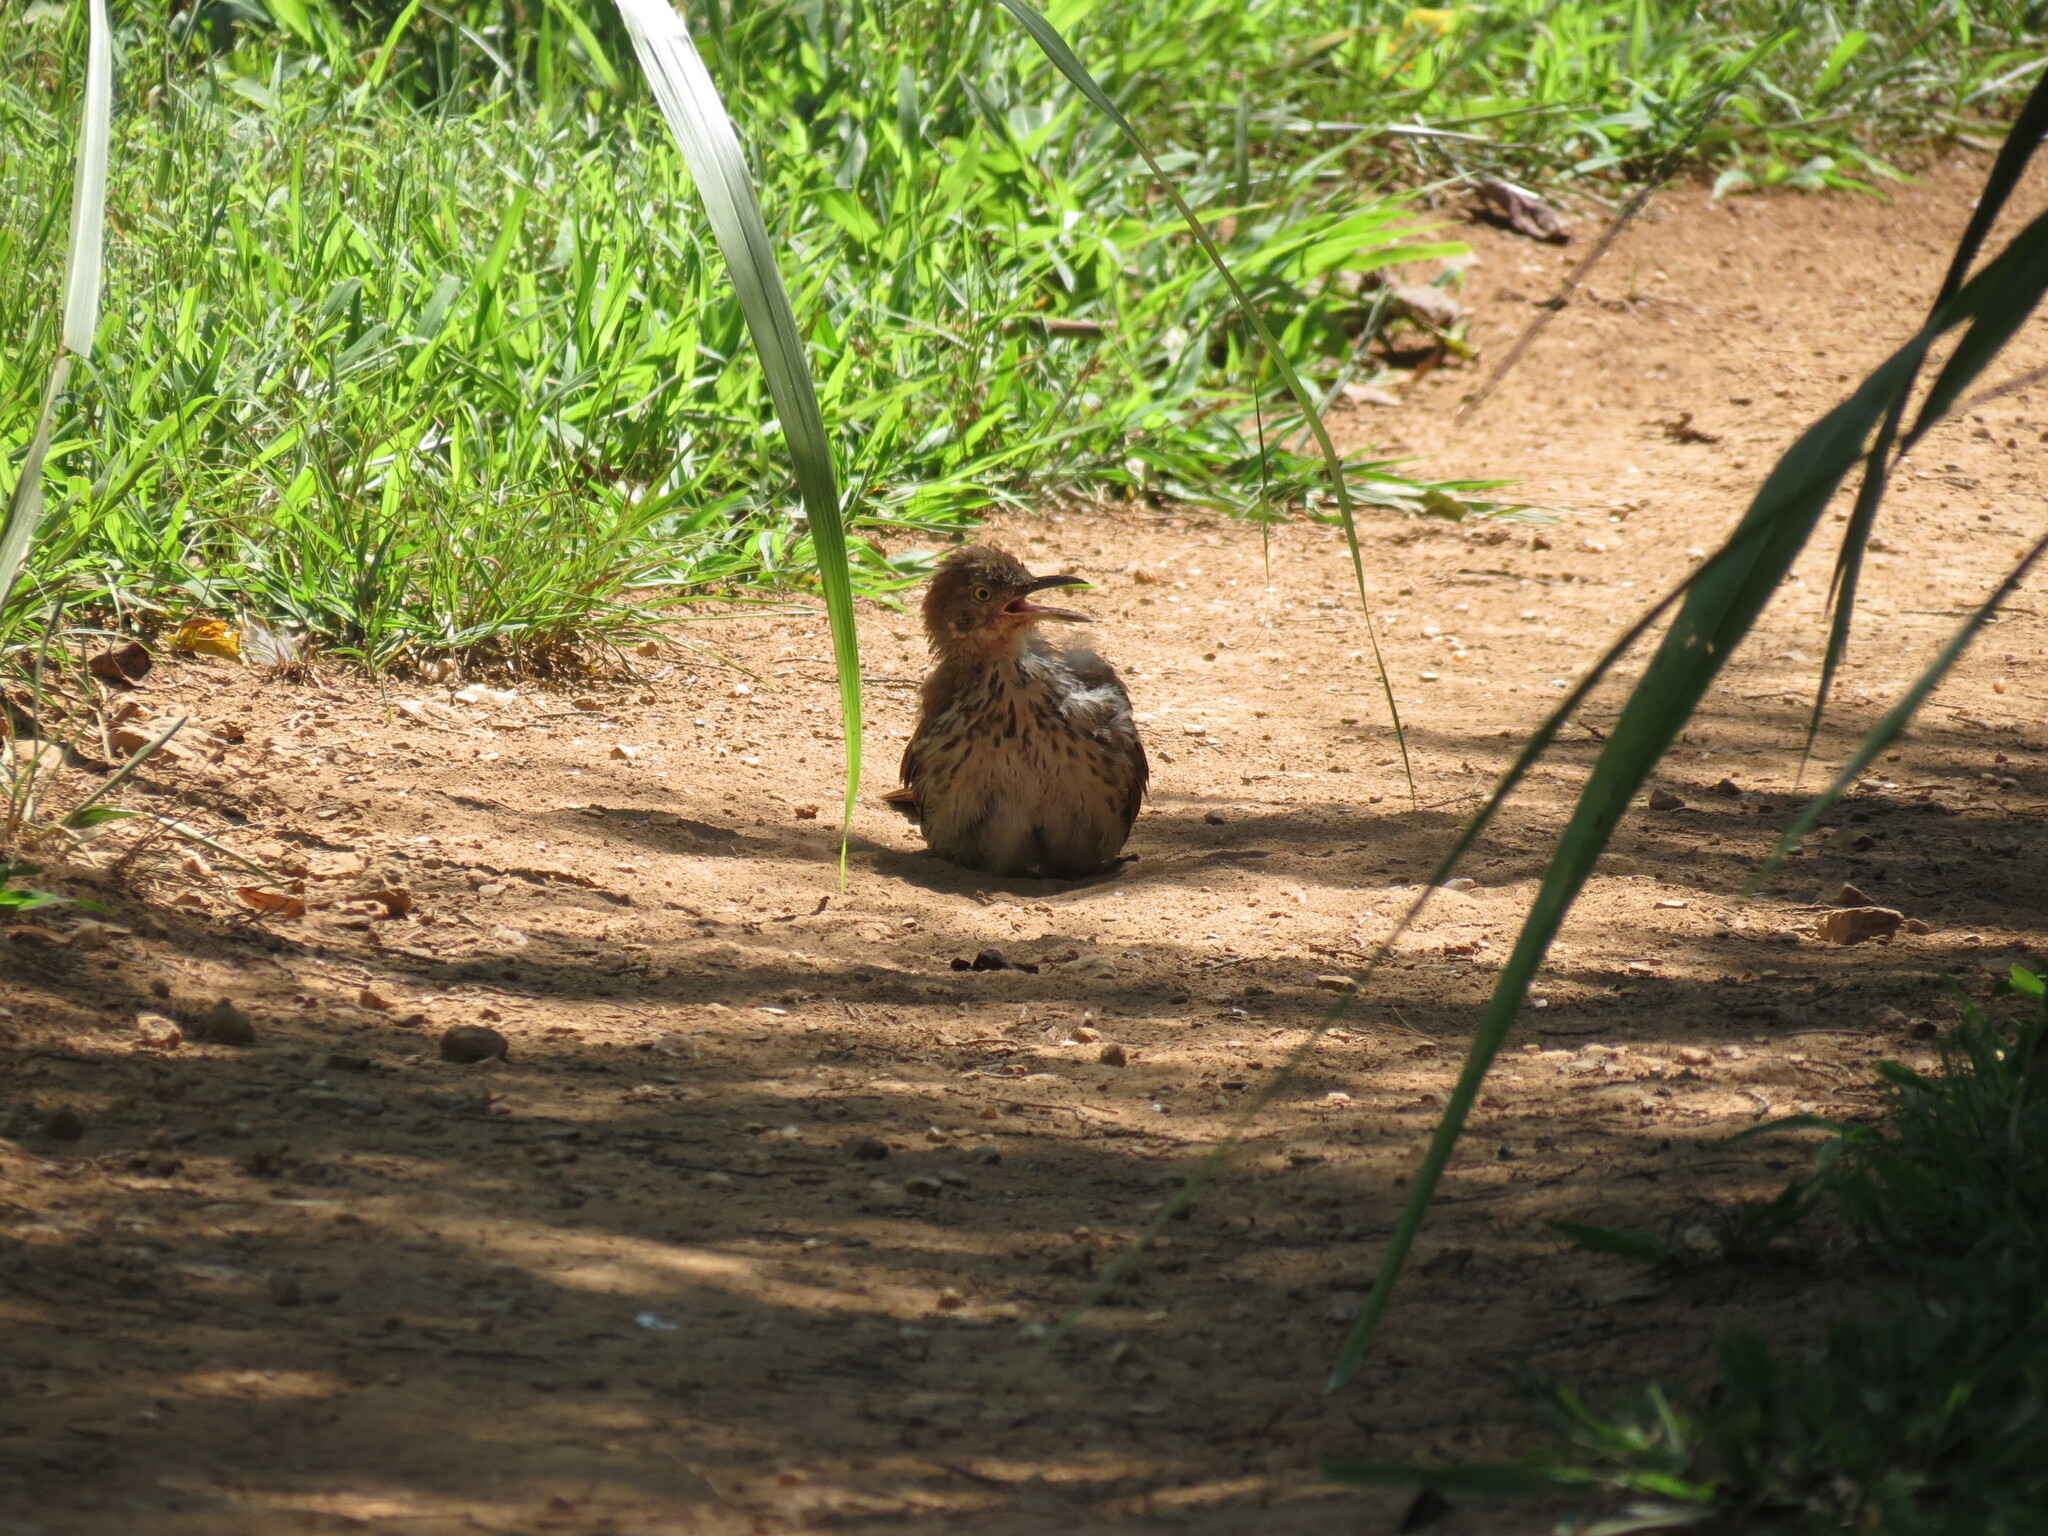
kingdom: Animalia
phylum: Chordata
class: Aves
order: Passeriformes
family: Mimidae
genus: Toxostoma
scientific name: Toxostoma rufum
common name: Brown thrasher
